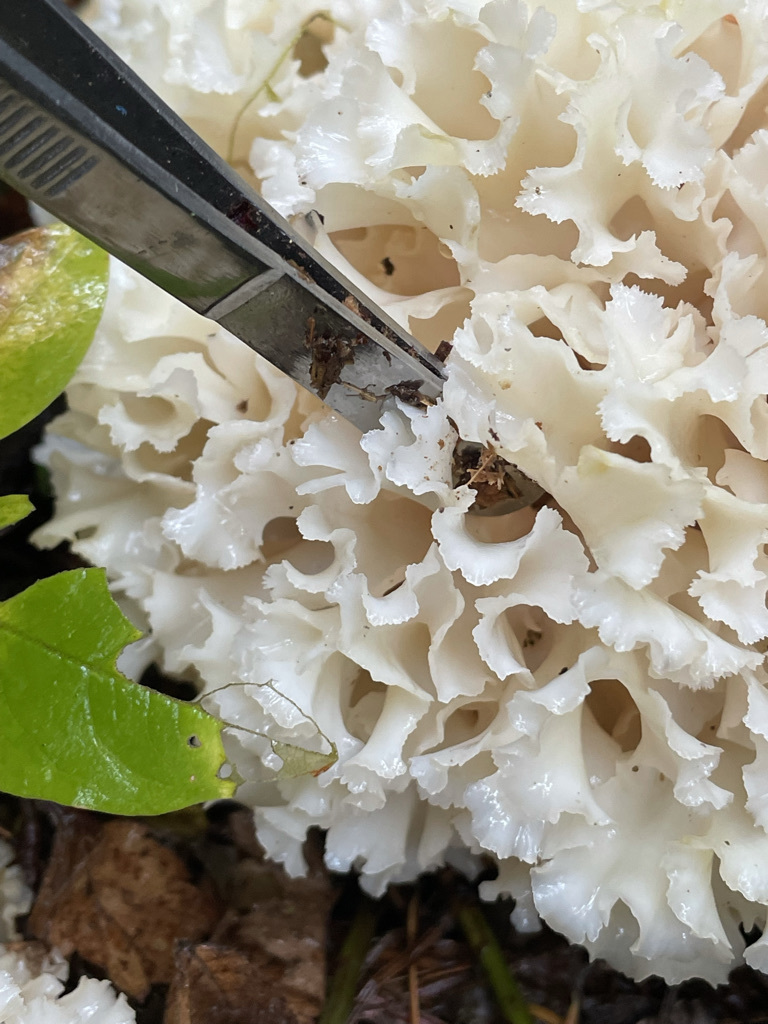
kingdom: Fungi
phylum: Basidiomycota
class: Agaricomycetes
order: Polyporales
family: Sparassidaceae
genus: Sparassis
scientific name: Sparassis radicata
